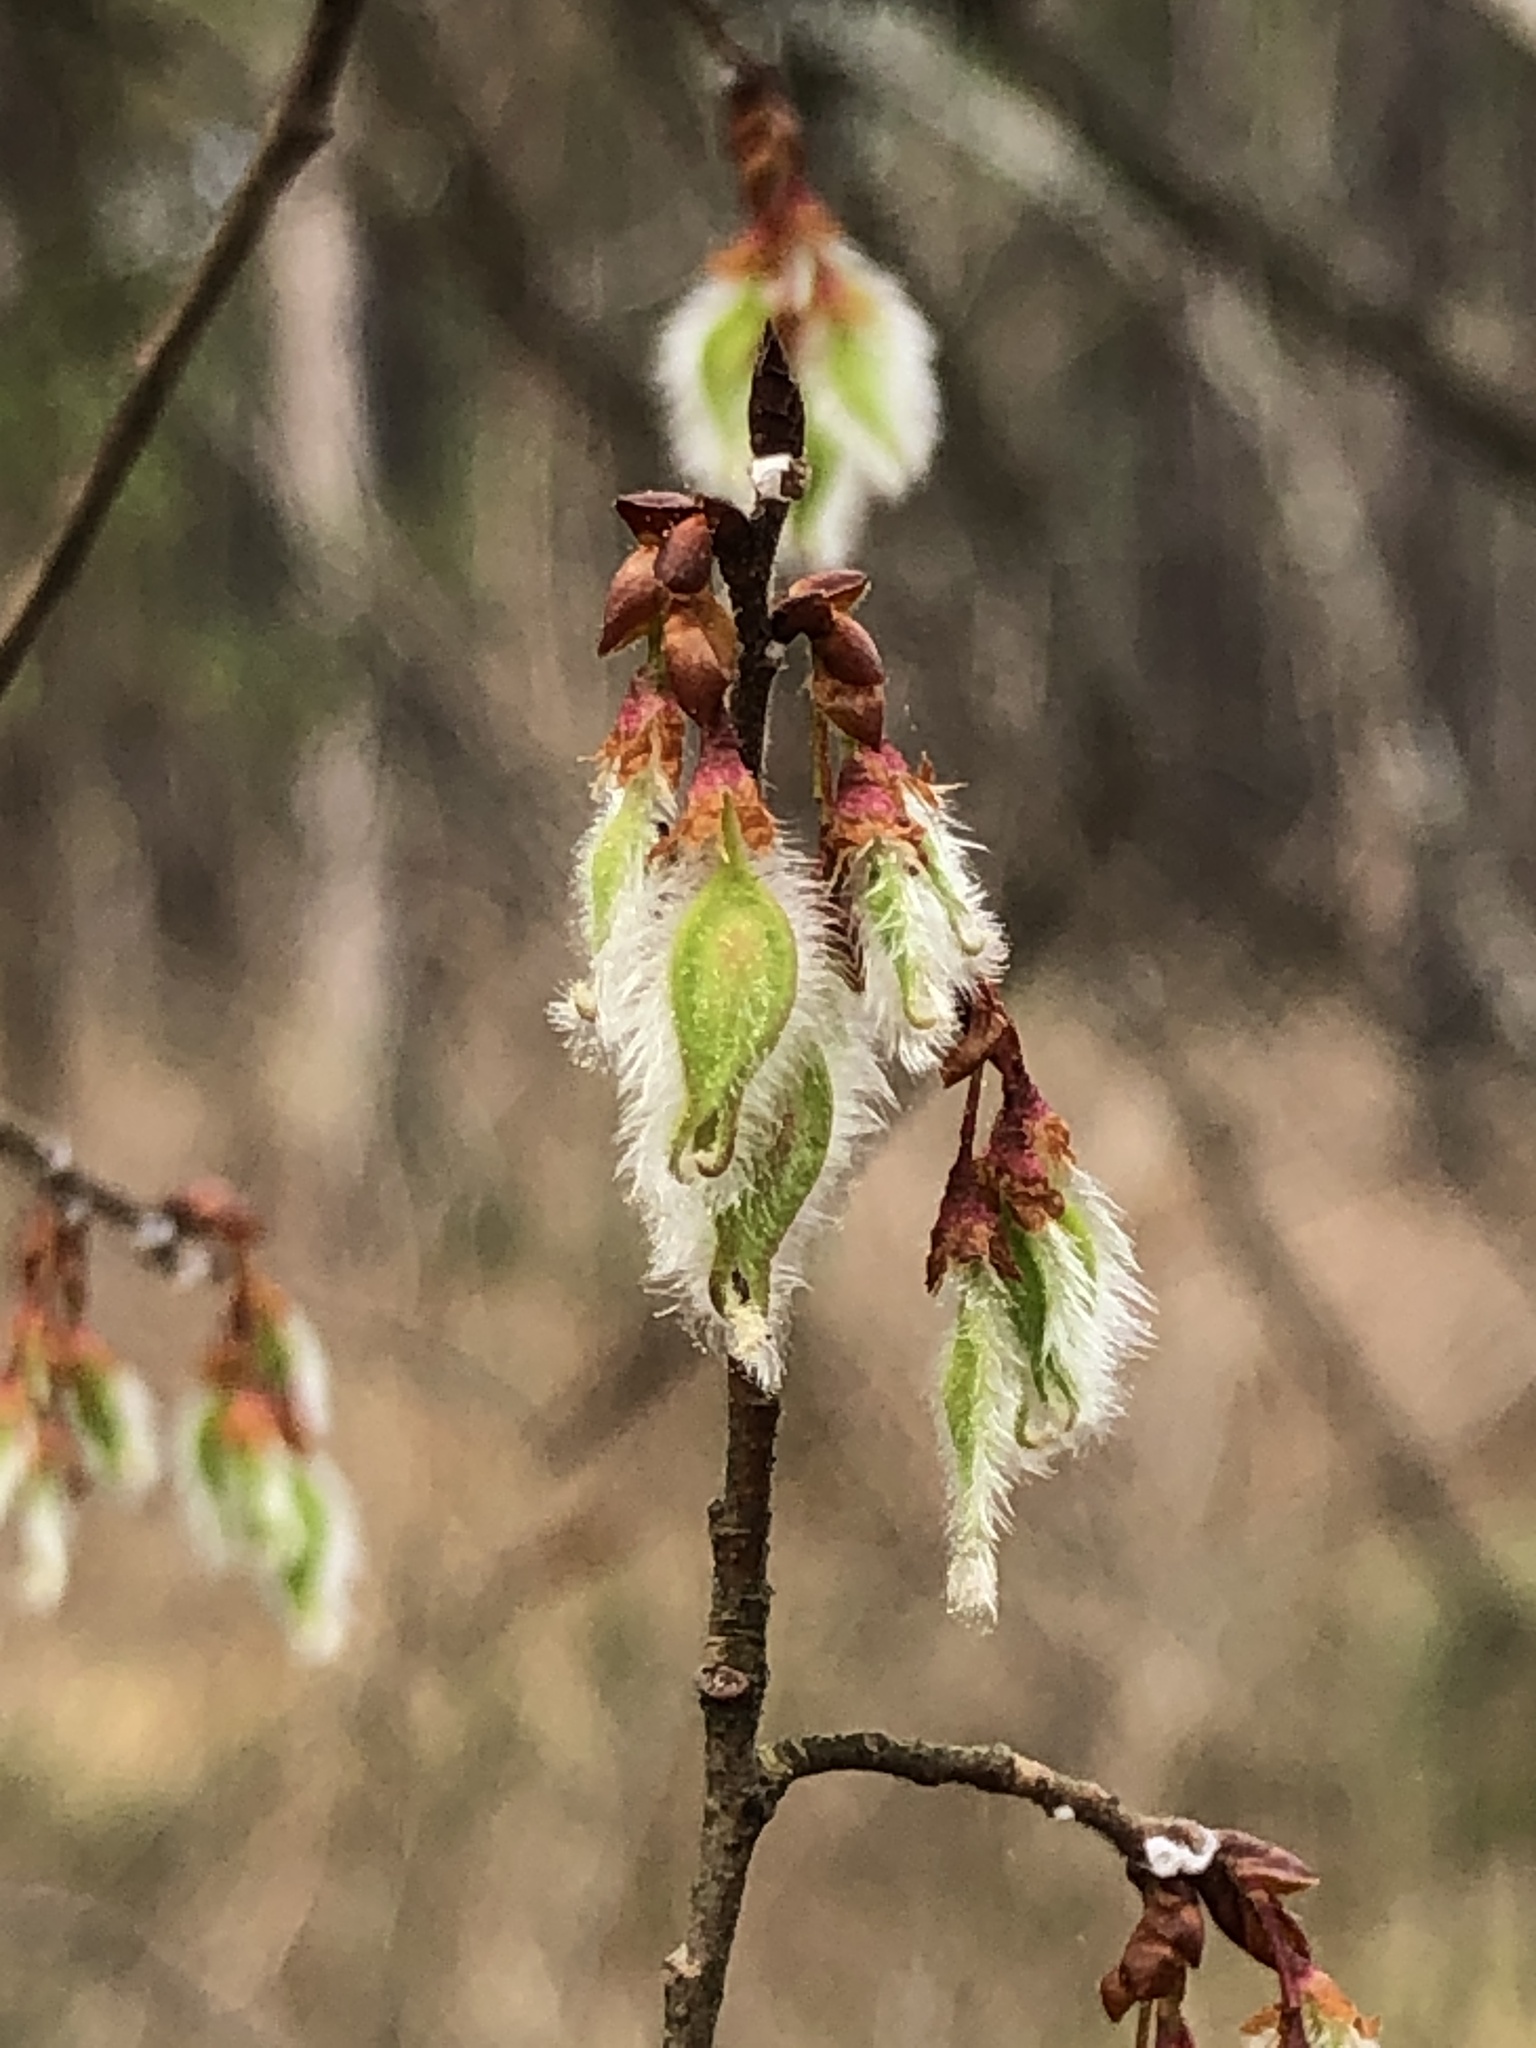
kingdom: Plantae
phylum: Tracheophyta
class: Magnoliopsida
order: Rosales
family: Ulmaceae
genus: Ulmus
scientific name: Ulmus alata
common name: Winged elm
